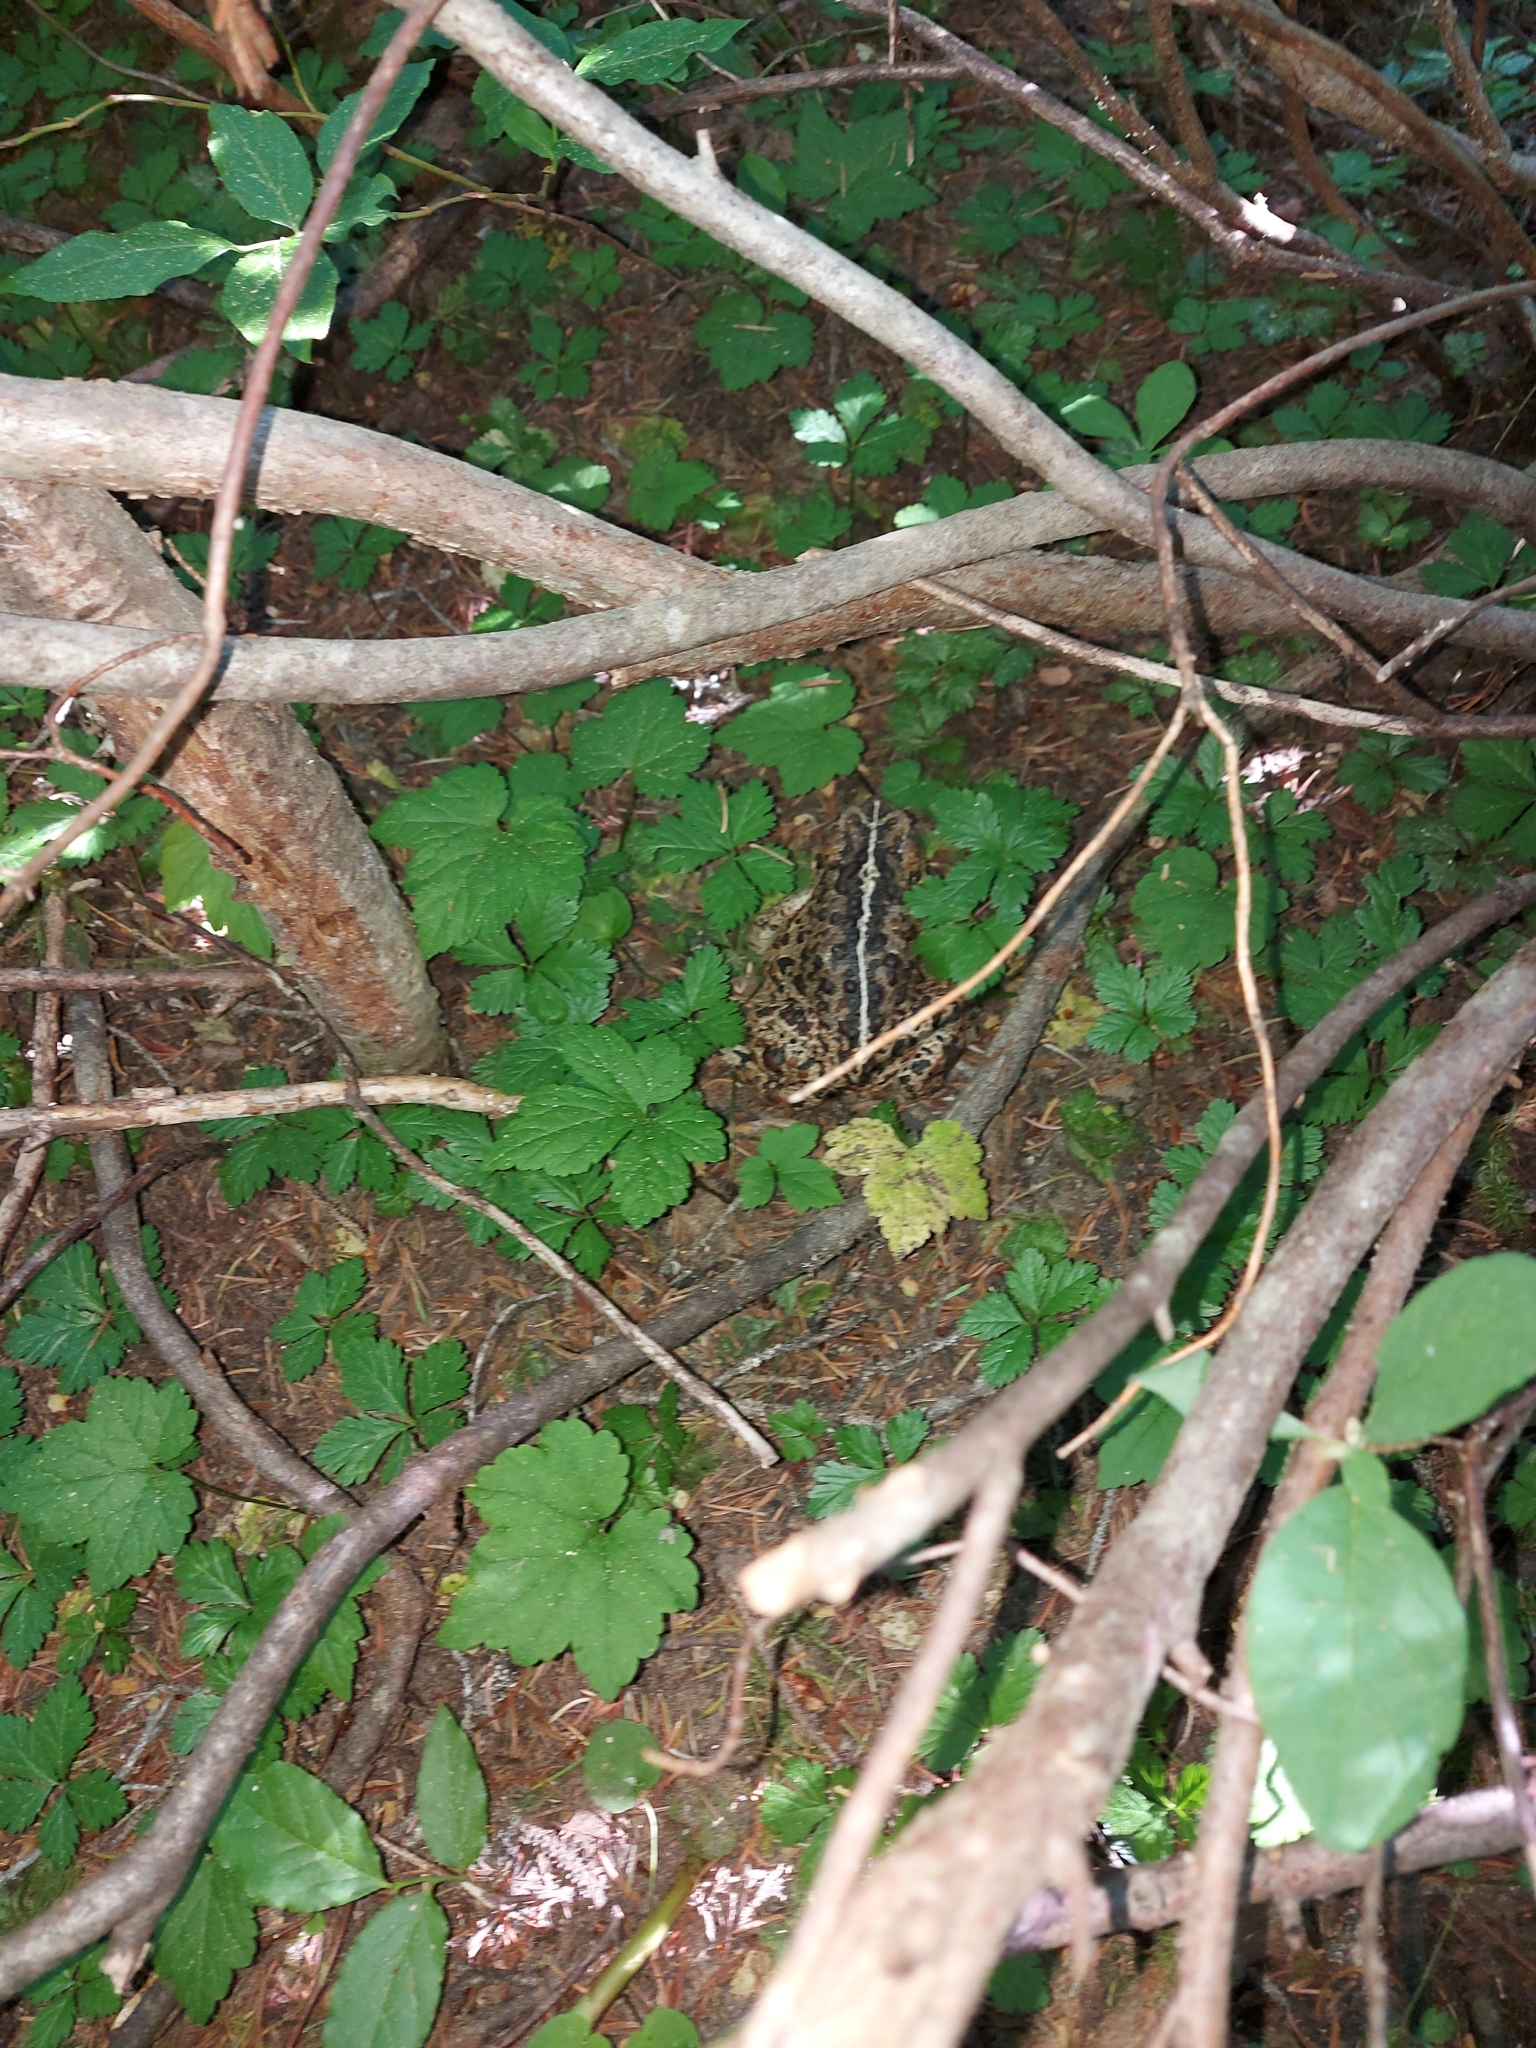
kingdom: Animalia
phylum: Chordata
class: Amphibia
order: Anura
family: Bufonidae
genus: Anaxyrus
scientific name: Anaxyrus boreas
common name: Western toad
